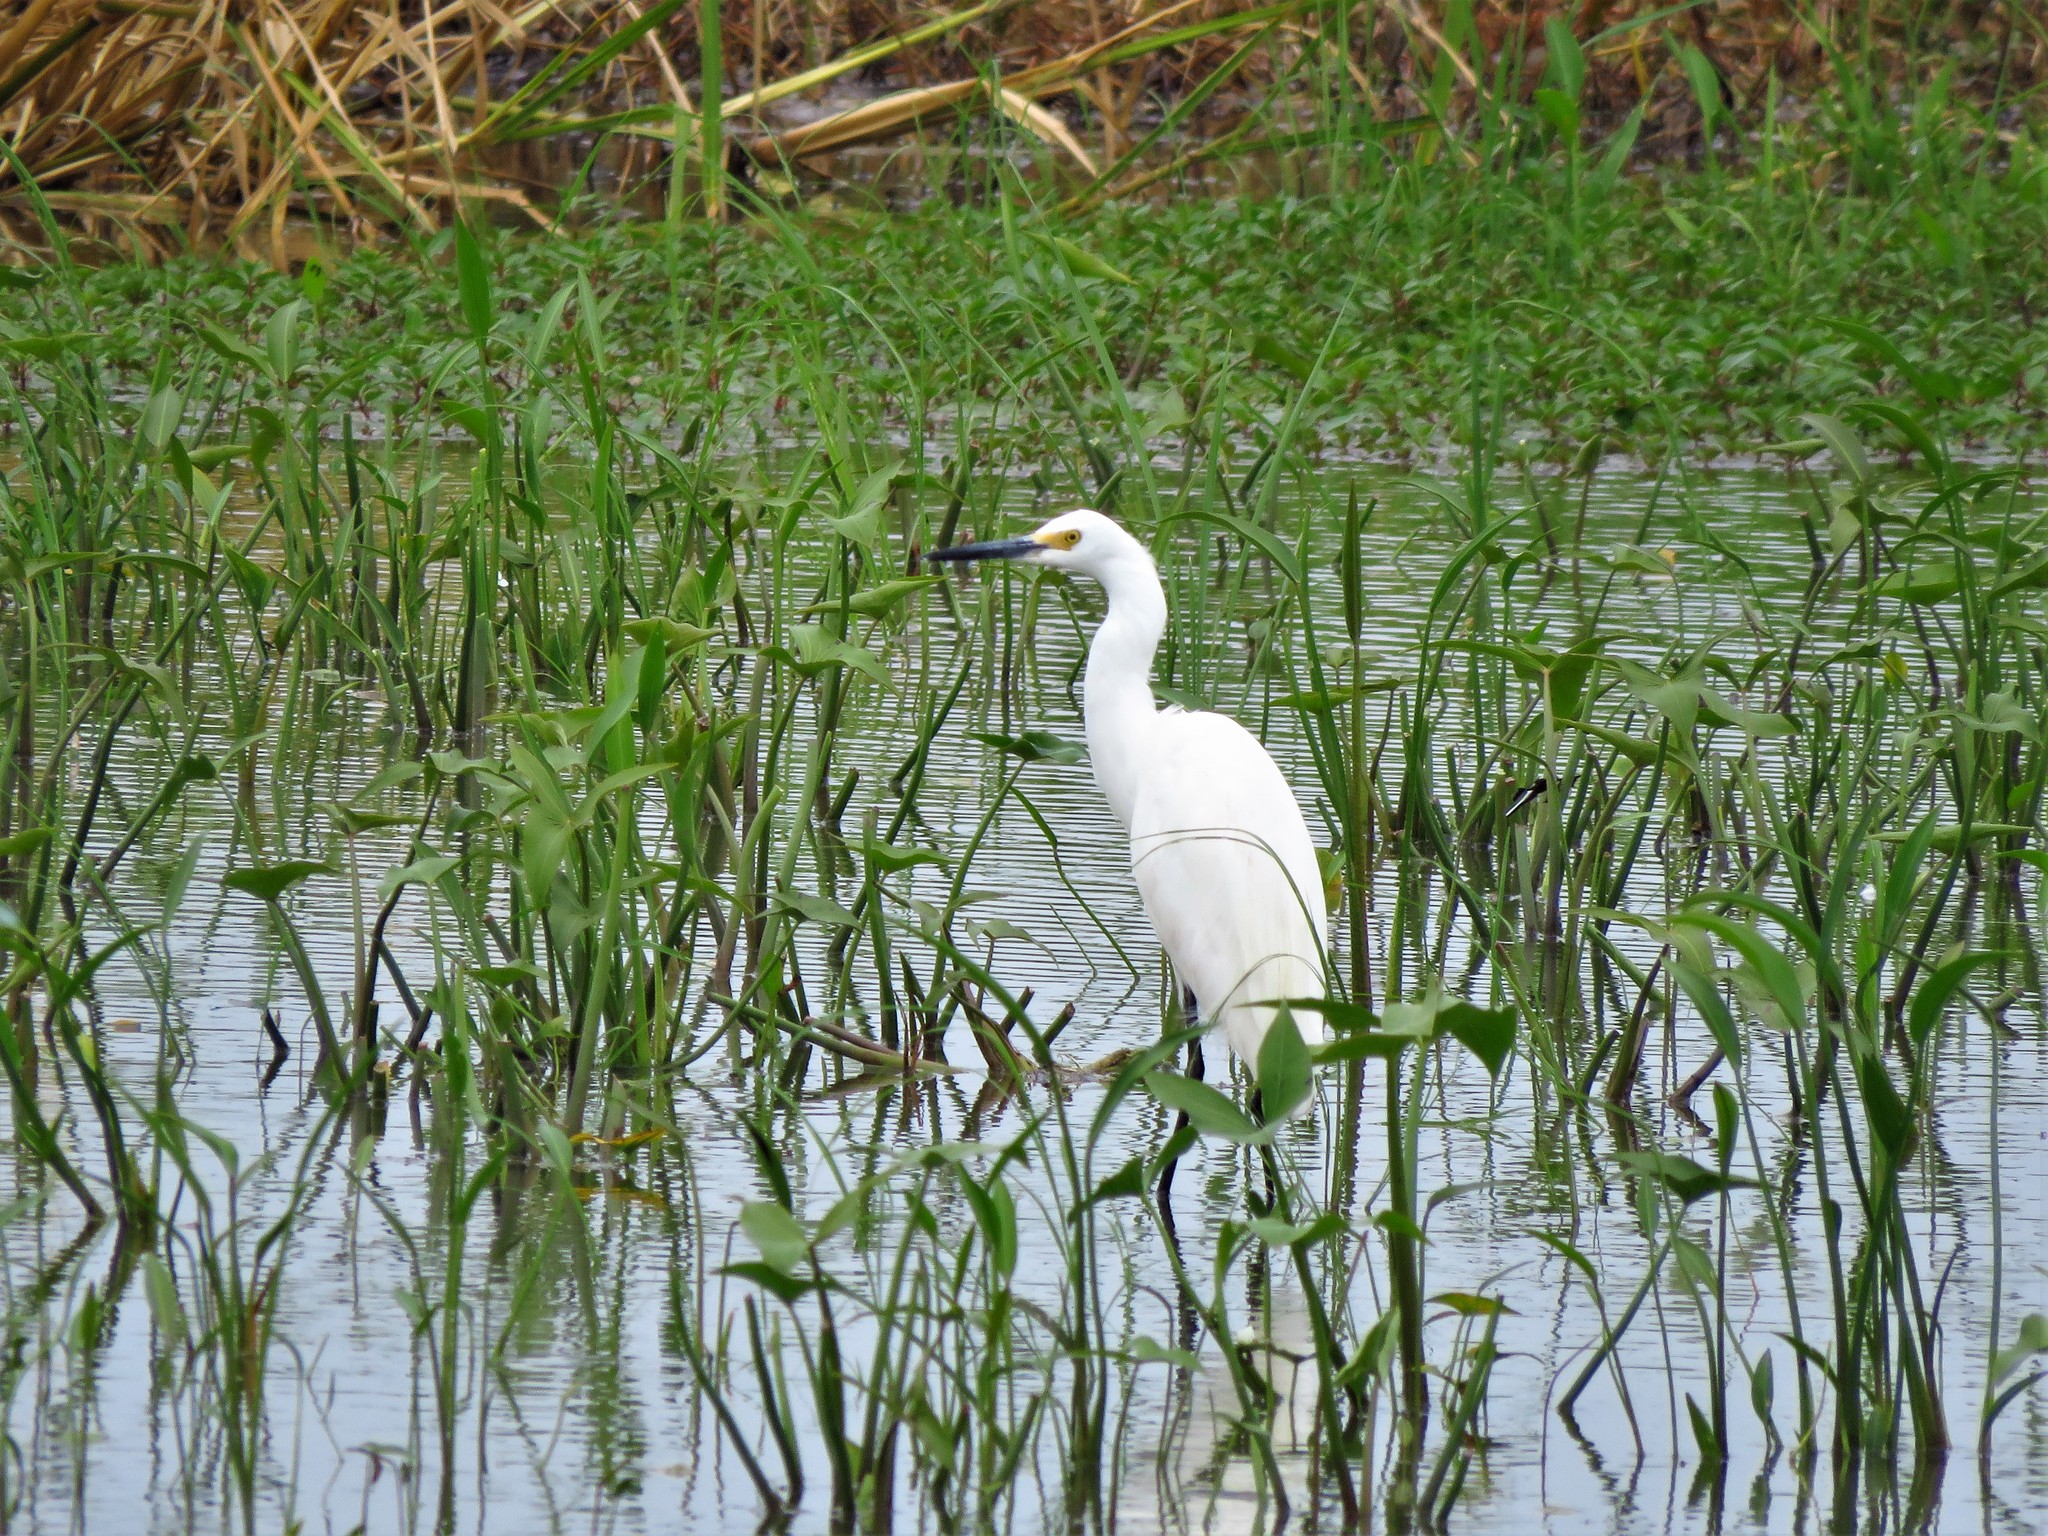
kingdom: Animalia
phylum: Chordata
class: Aves
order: Pelecaniformes
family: Ardeidae
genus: Egretta
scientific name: Egretta thula
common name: Snowy egret
